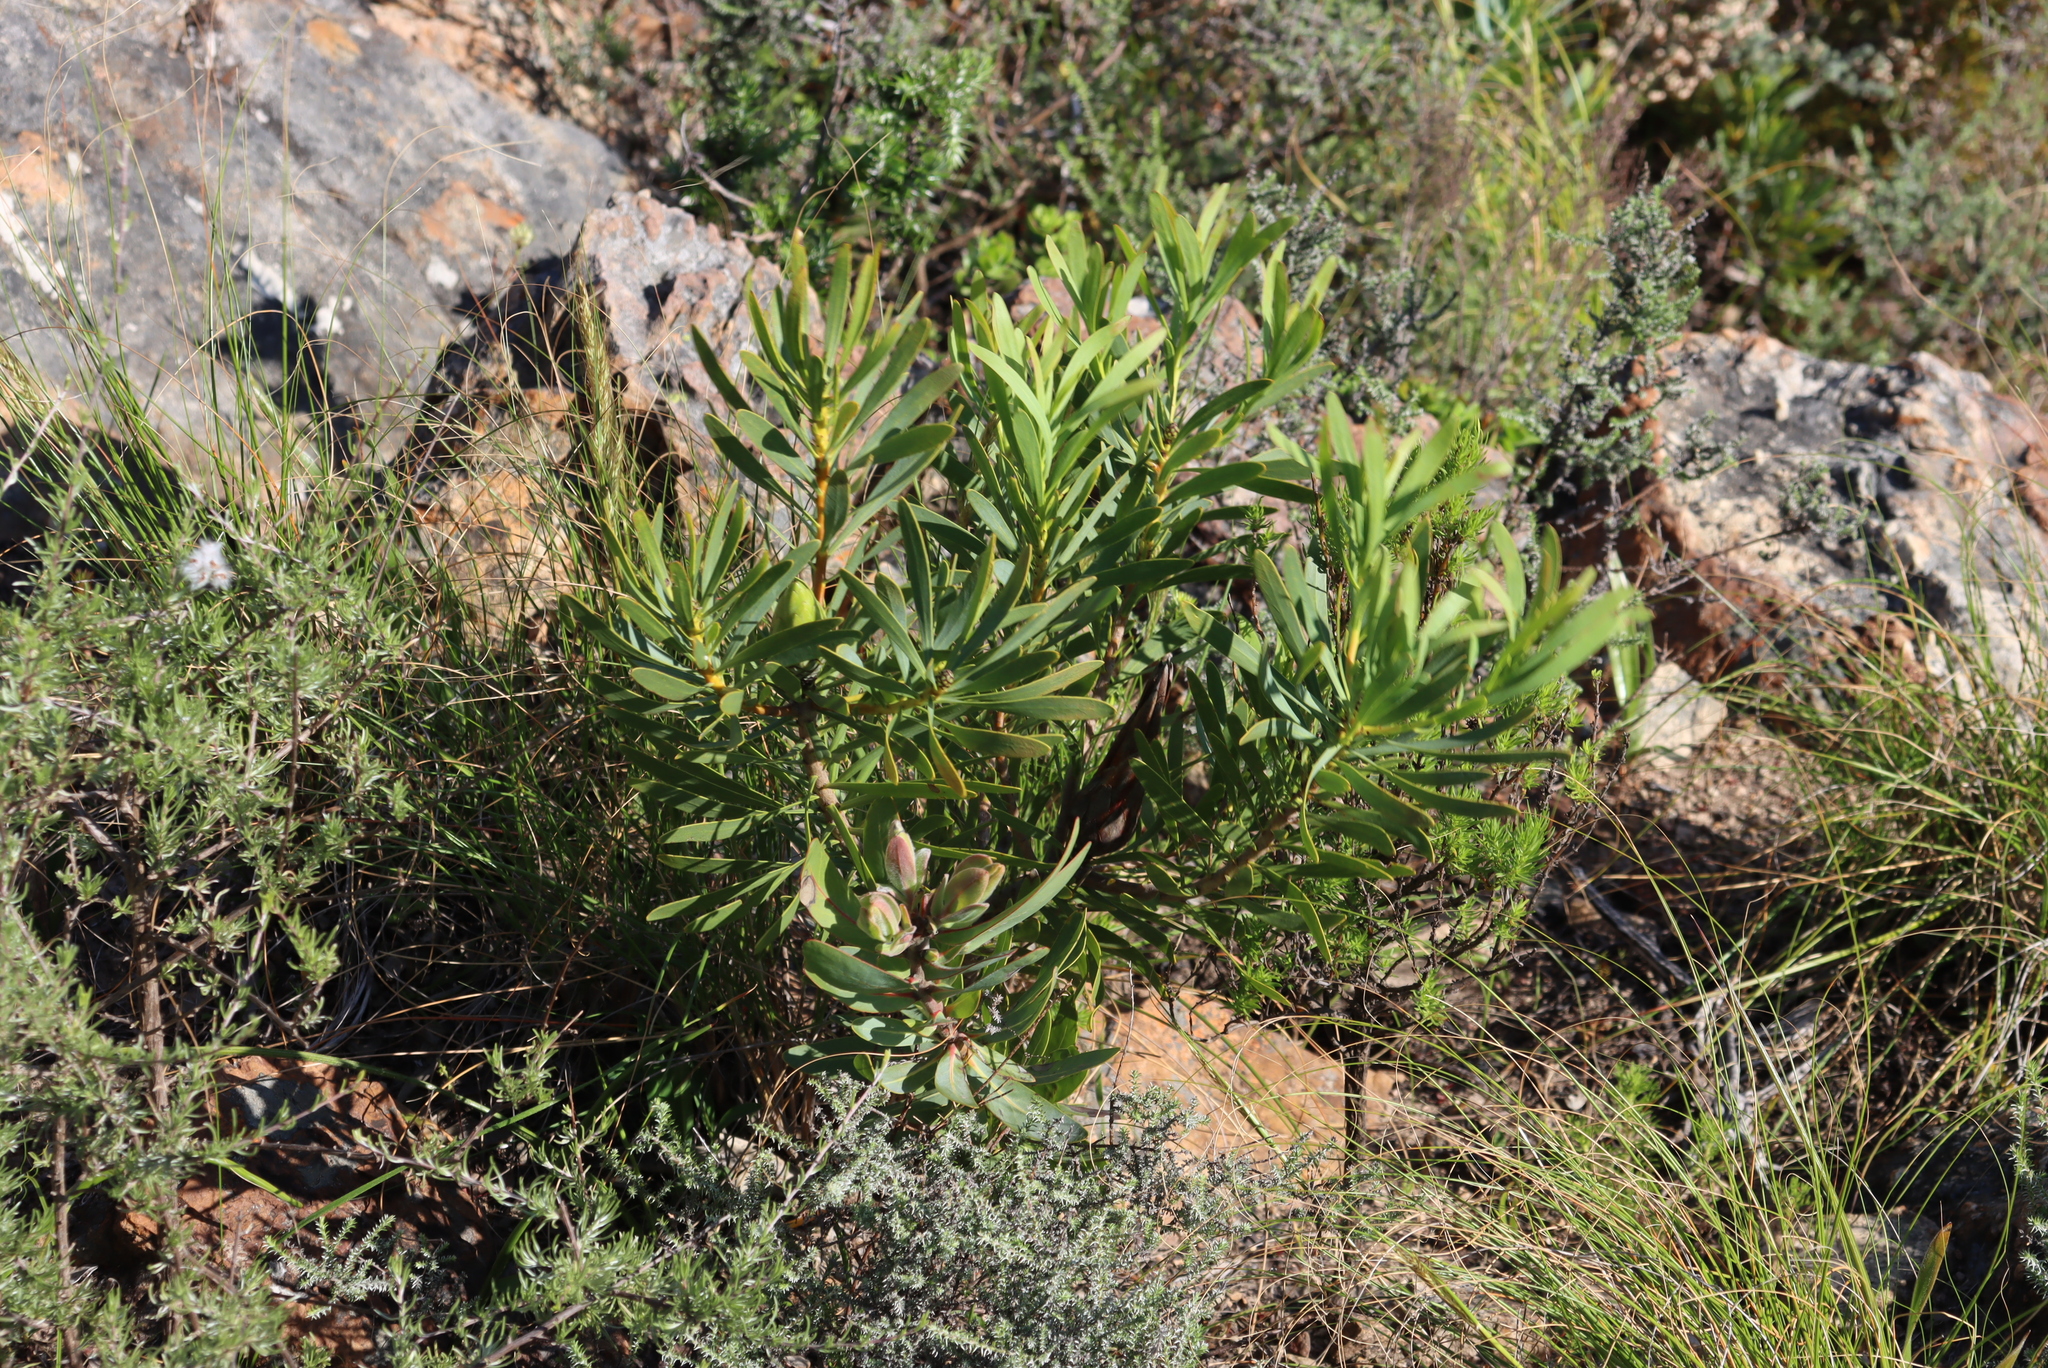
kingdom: Plantae
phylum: Tracheophyta
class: Magnoliopsida
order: Proteales
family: Proteaceae
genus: Protea
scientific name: Protea repens
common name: Sugarbush
